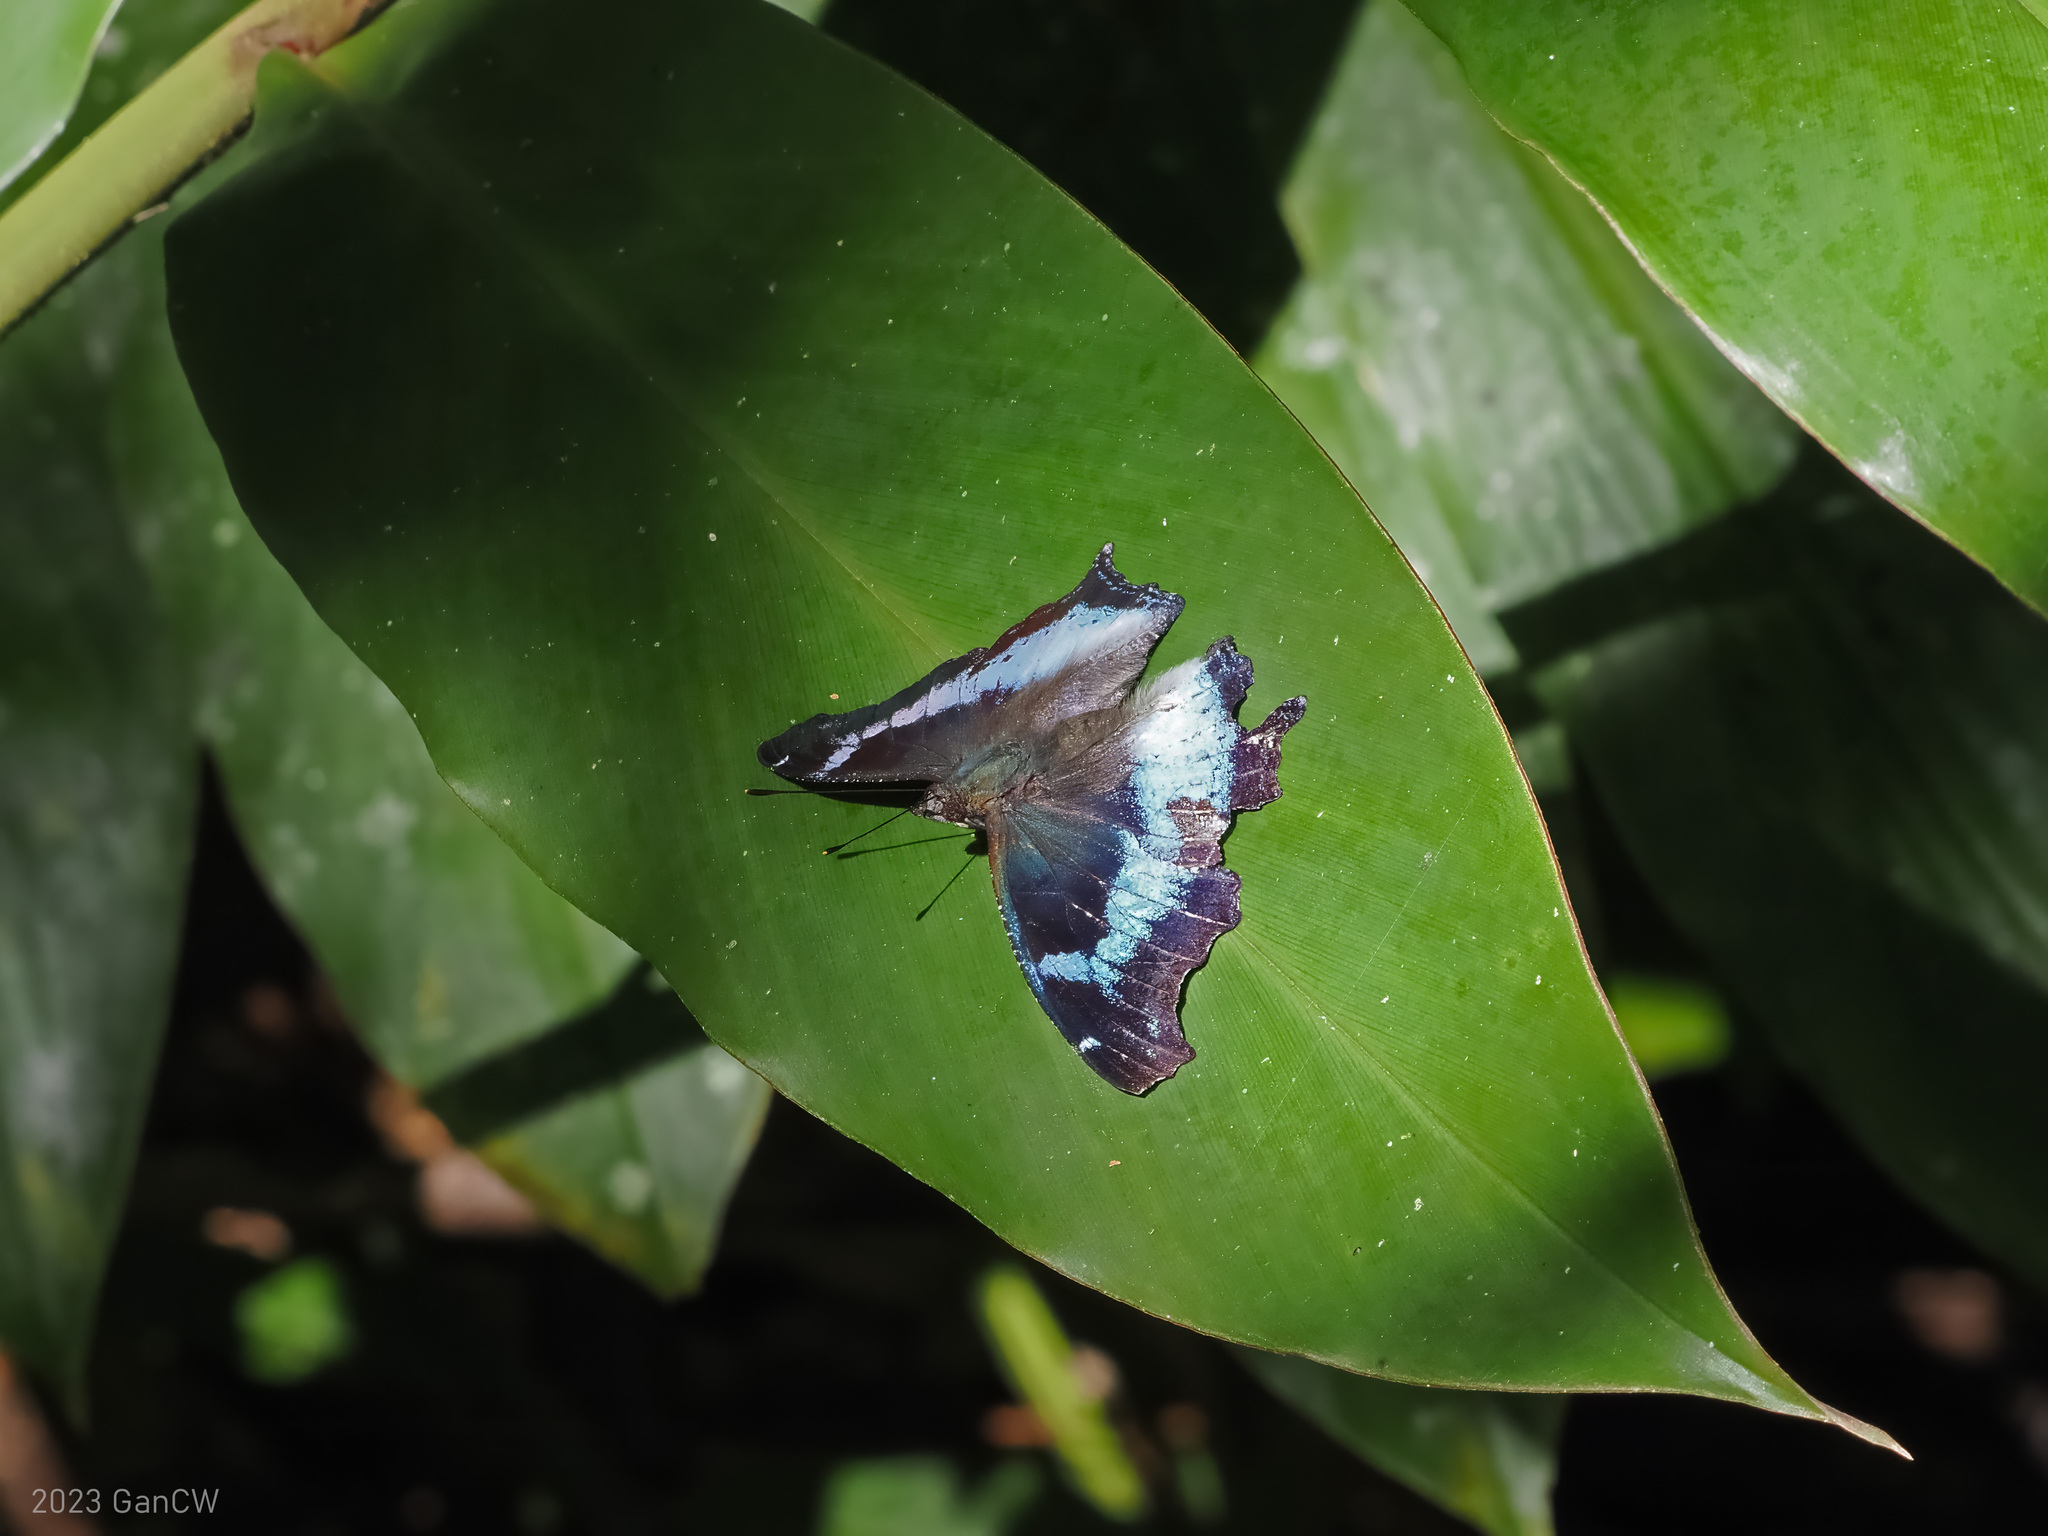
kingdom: Animalia
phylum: Arthropoda
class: Insecta
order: Lepidoptera
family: Nymphalidae
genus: Vanessa
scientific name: Vanessa Kaniska canace
